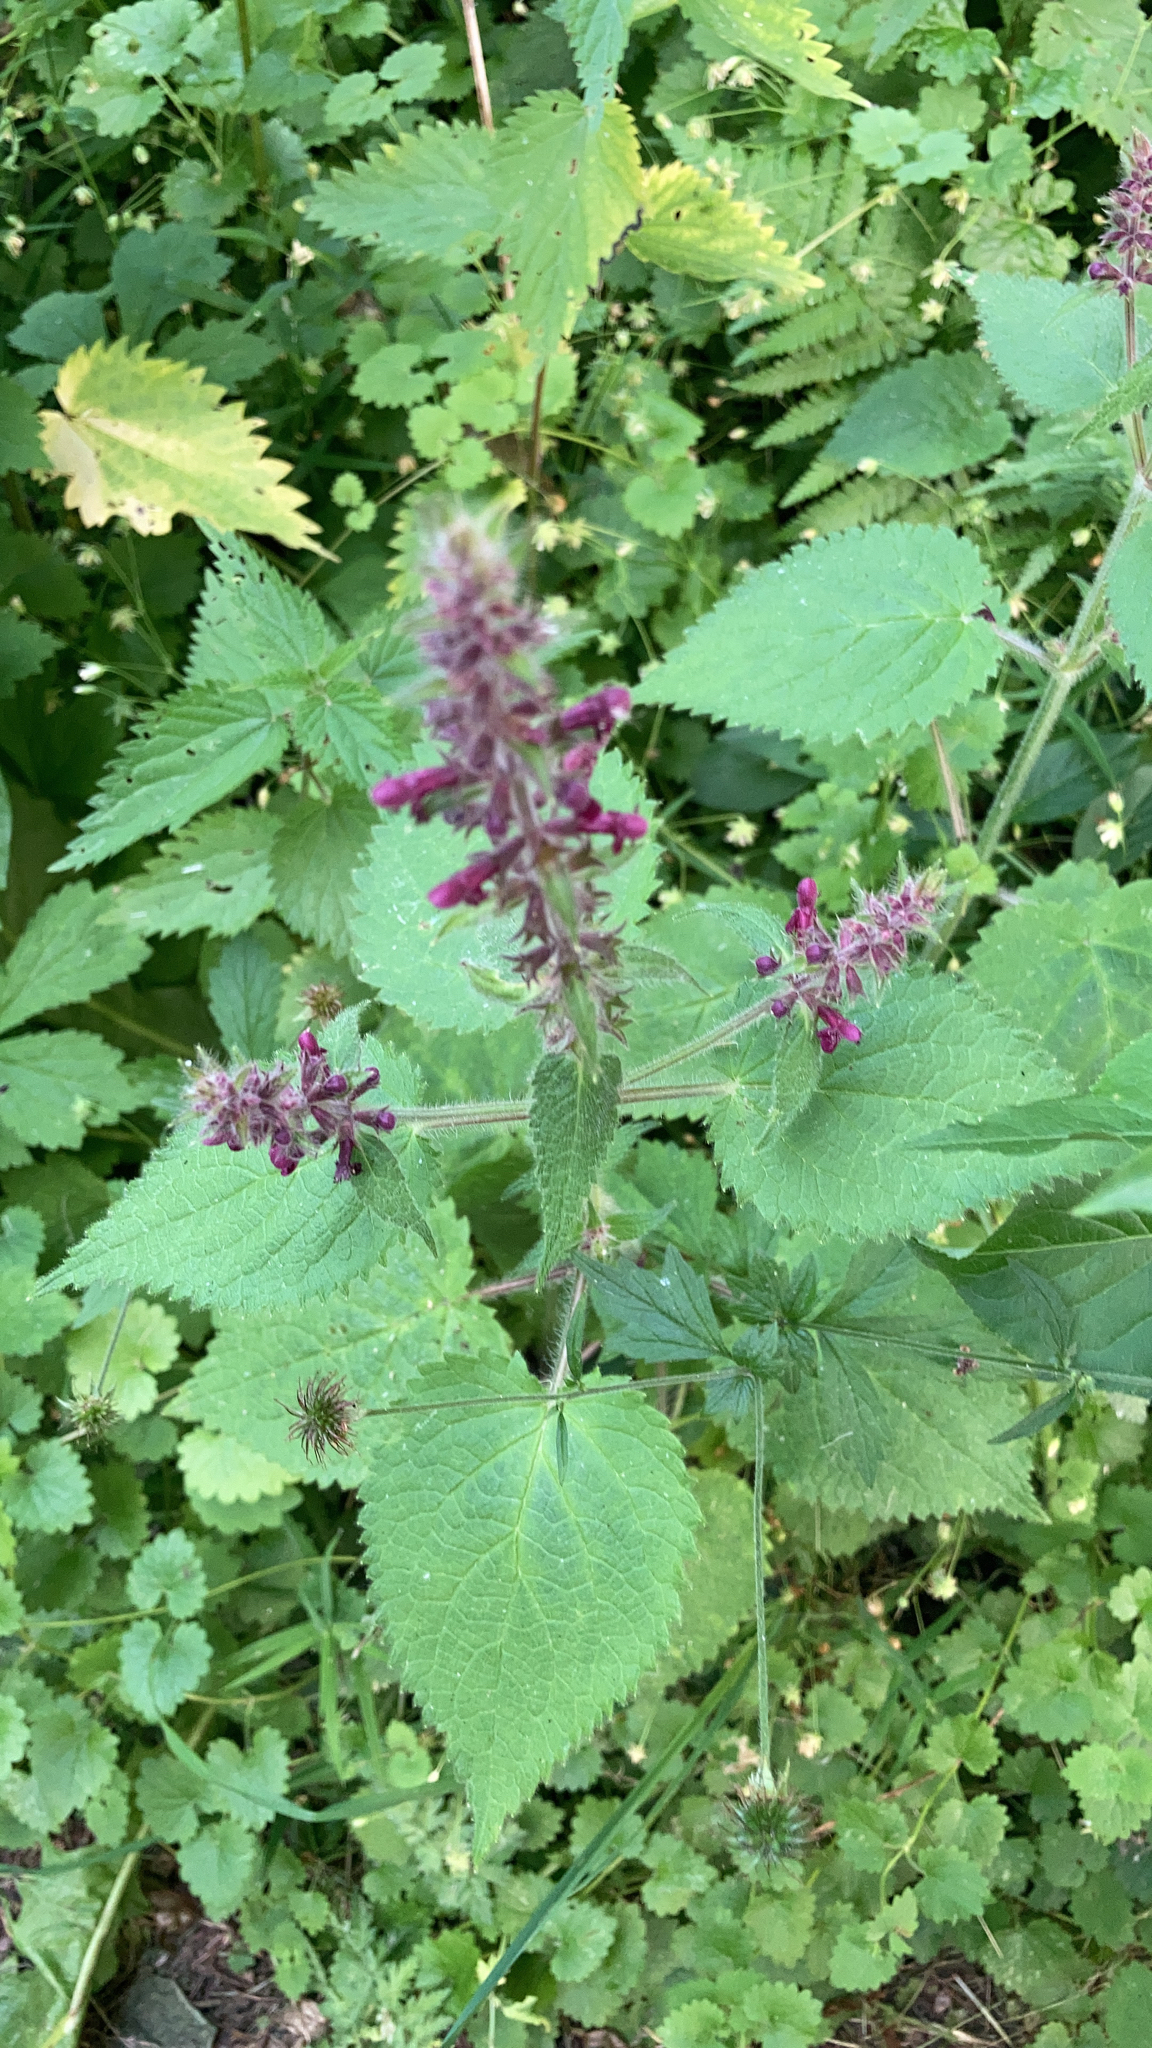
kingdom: Plantae
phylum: Tracheophyta
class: Magnoliopsida
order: Lamiales
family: Lamiaceae
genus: Stachys
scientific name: Stachys sylvatica
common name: Hedge woundwort
